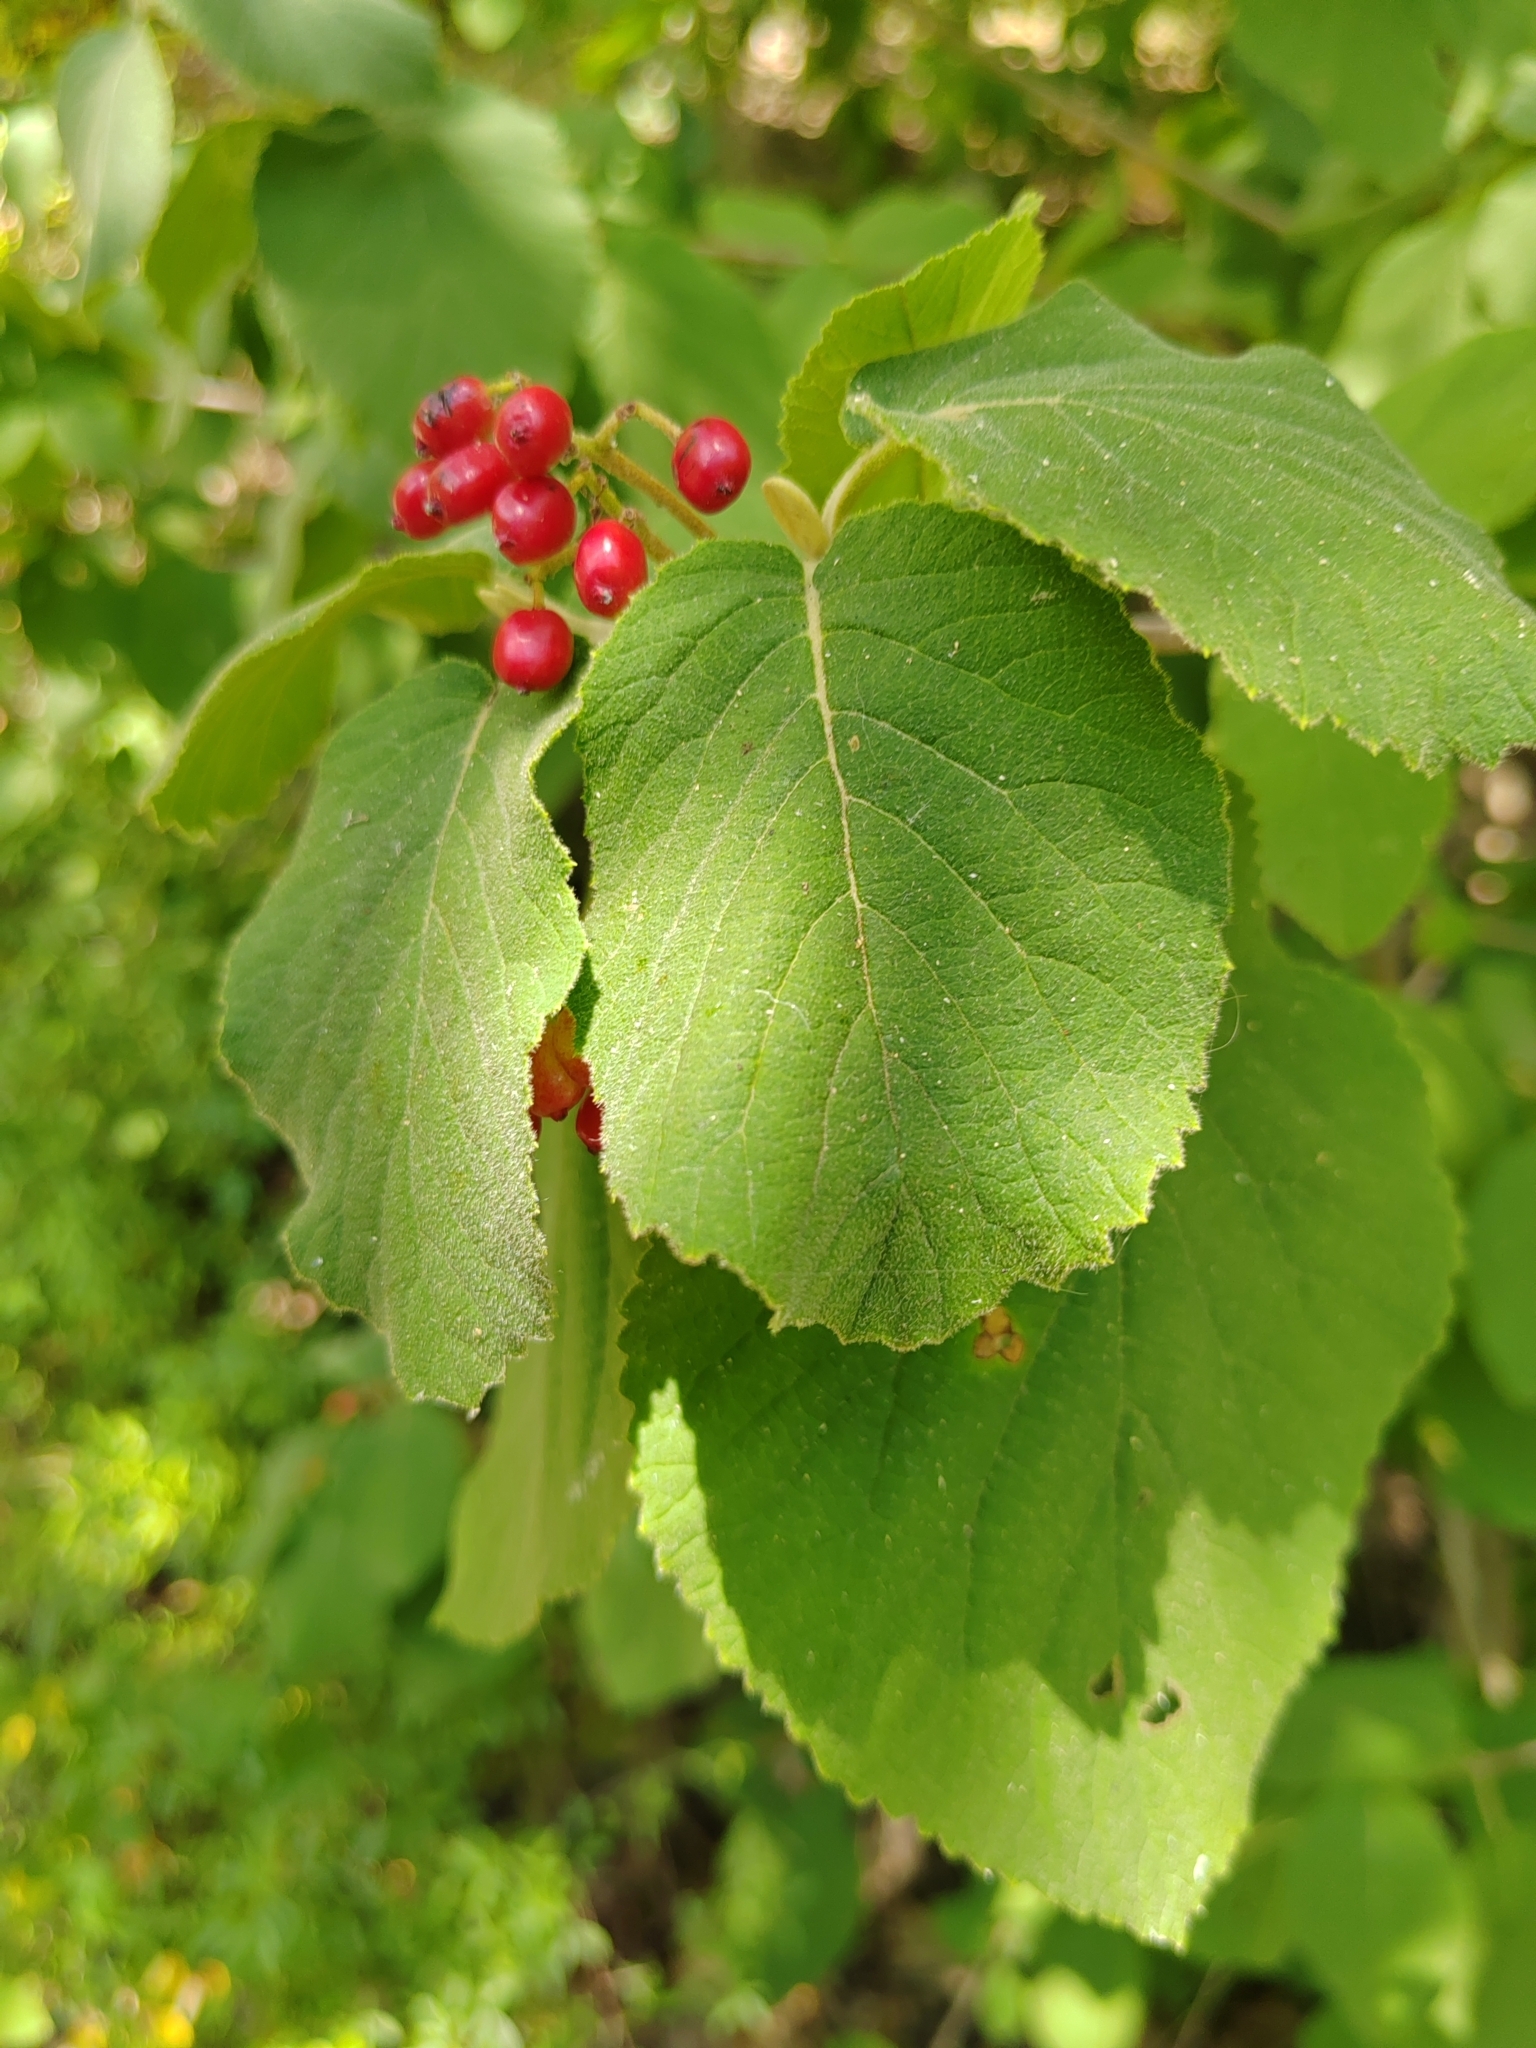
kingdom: Plantae
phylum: Tracheophyta
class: Magnoliopsida
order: Dipsacales
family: Viburnaceae
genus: Viburnum
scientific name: Viburnum lantana
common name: Wayfaring tree
